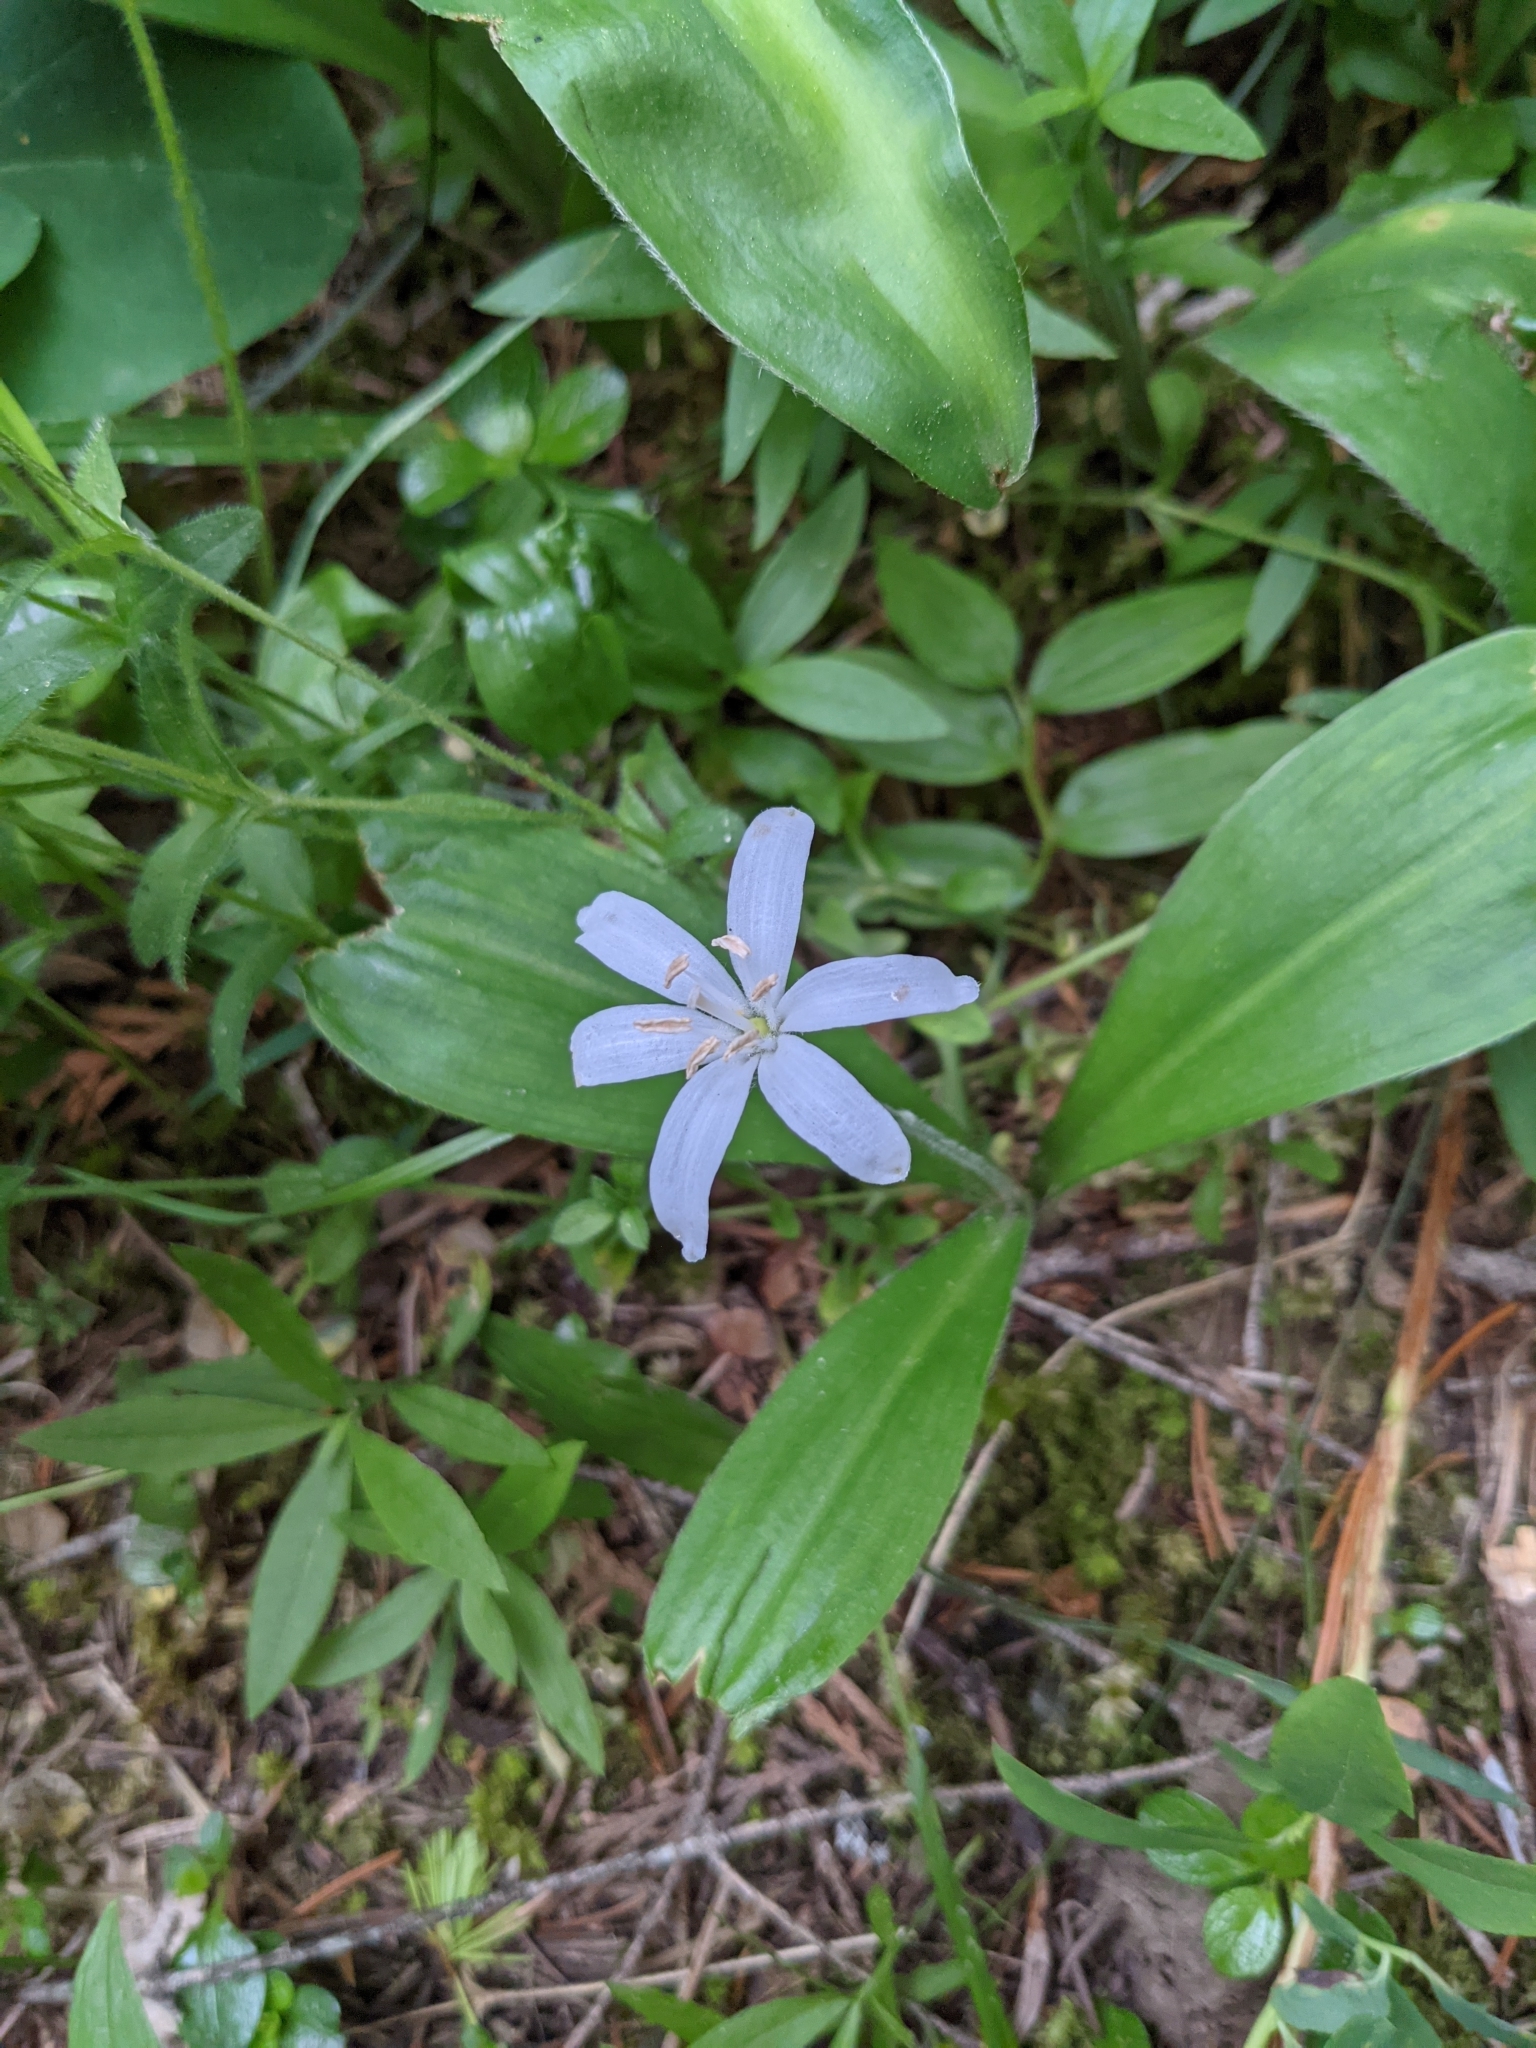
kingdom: Plantae
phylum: Tracheophyta
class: Liliopsida
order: Liliales
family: Liliaceae
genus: Clintonia
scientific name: Clintonia uniflora
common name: Queen's cup
